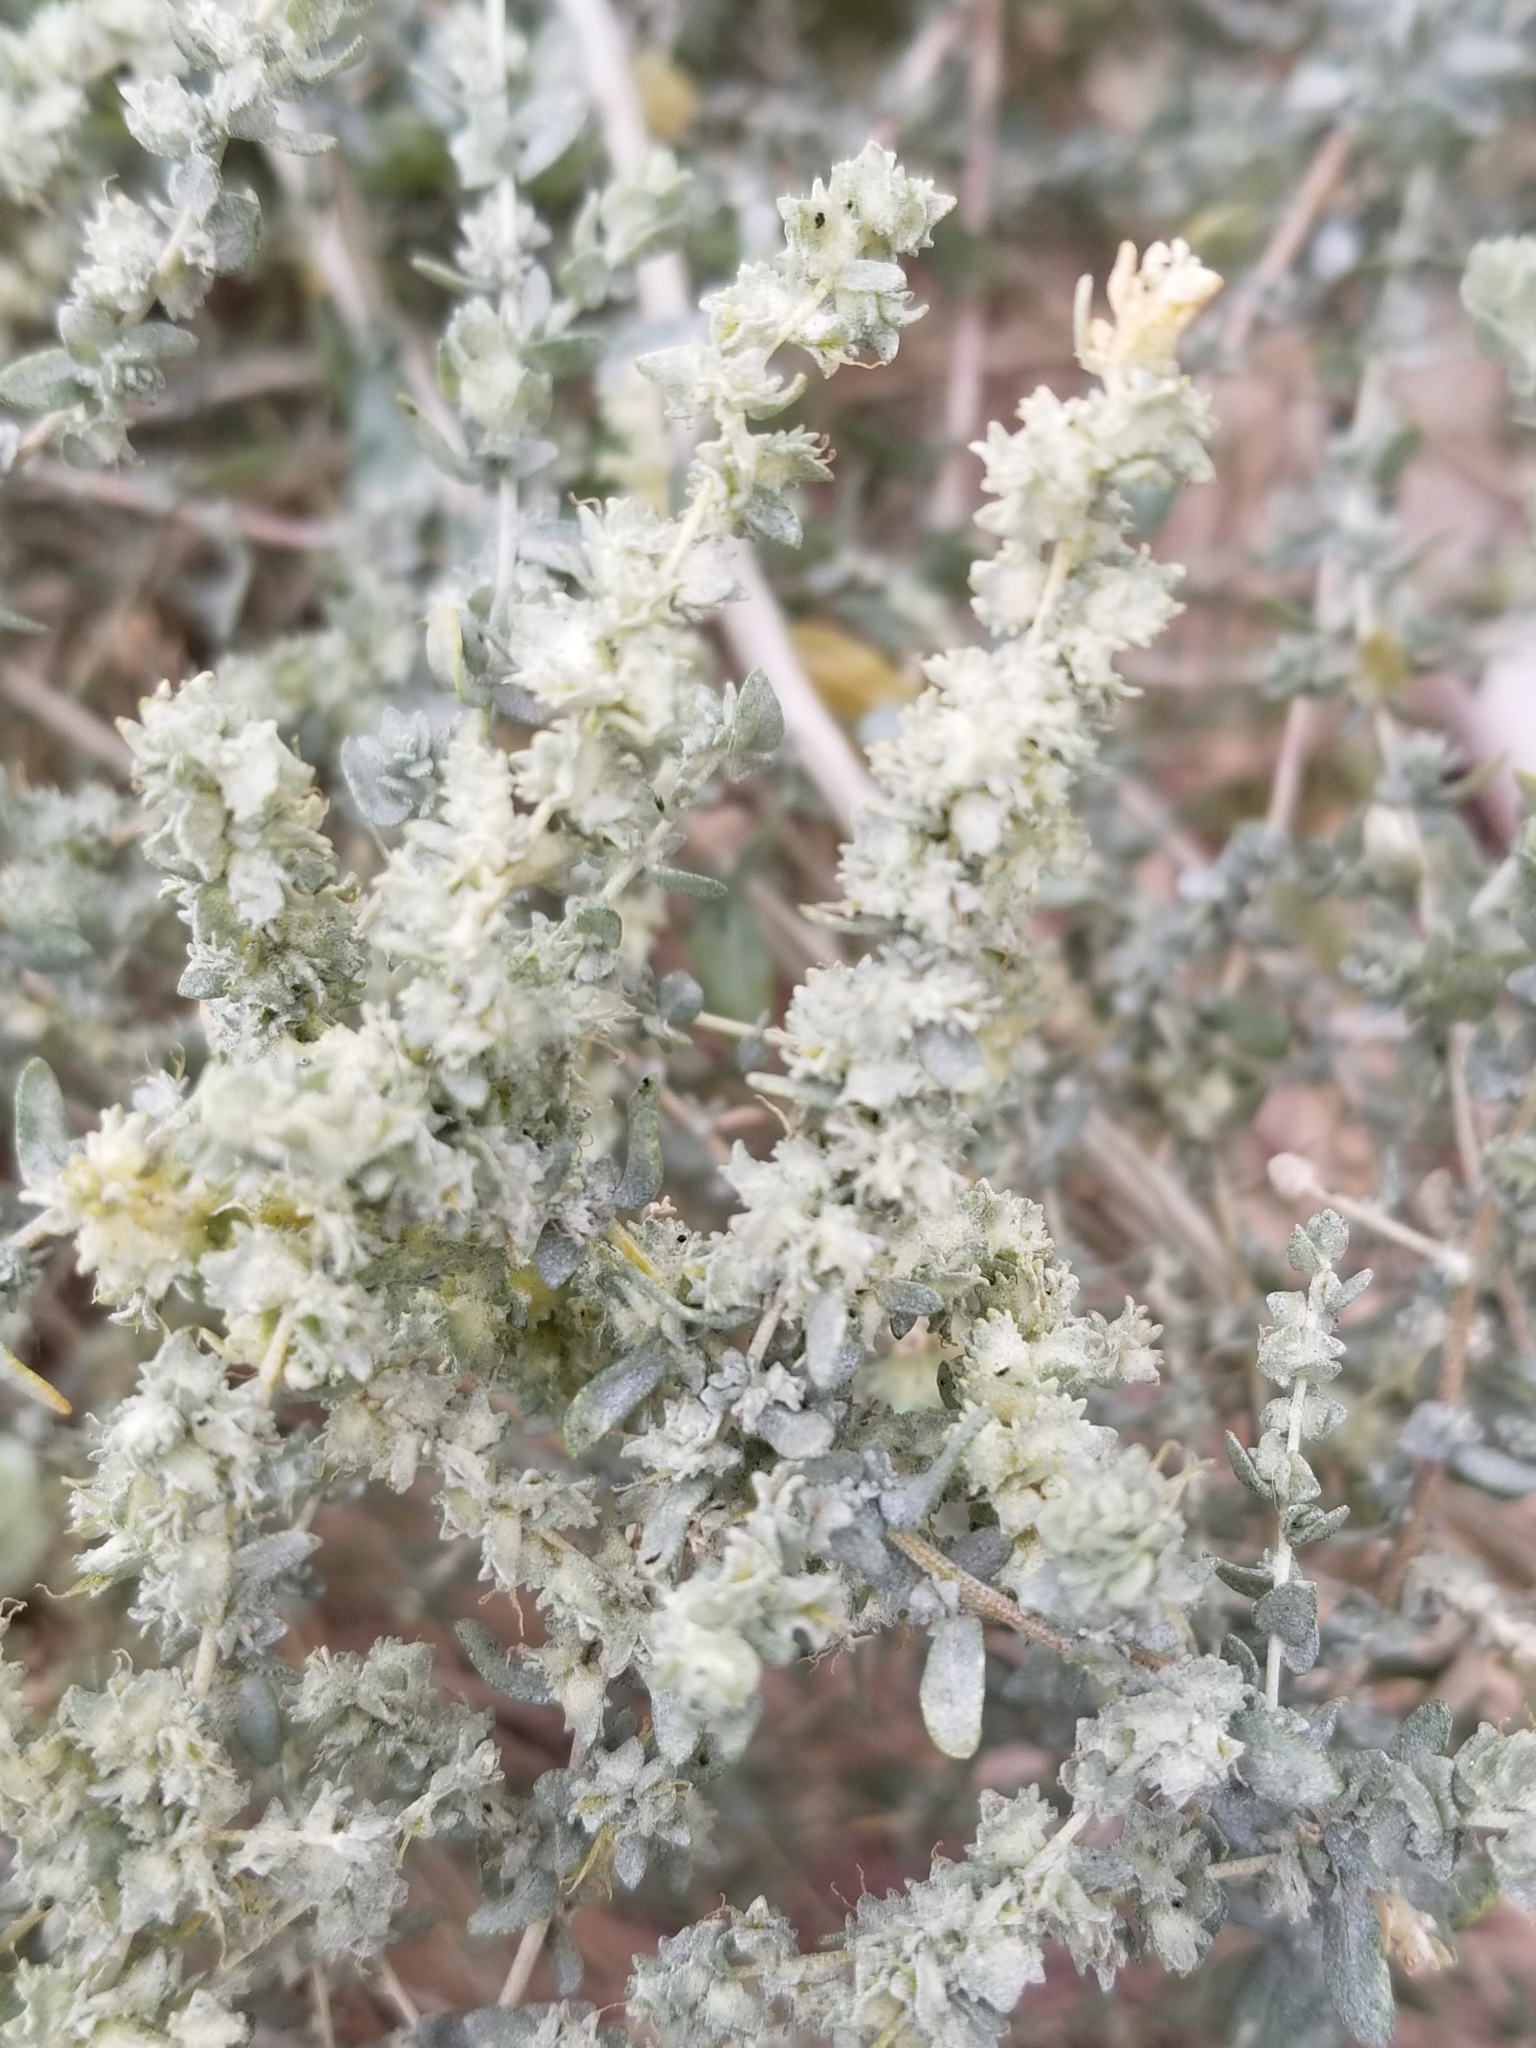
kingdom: Plantae
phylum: Tracheophyta
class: Magnoliopsida
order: Caryophyllales
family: Amaranthaceae
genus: Atriplex
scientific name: Atriplex polycarpa
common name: Desert saltbush
